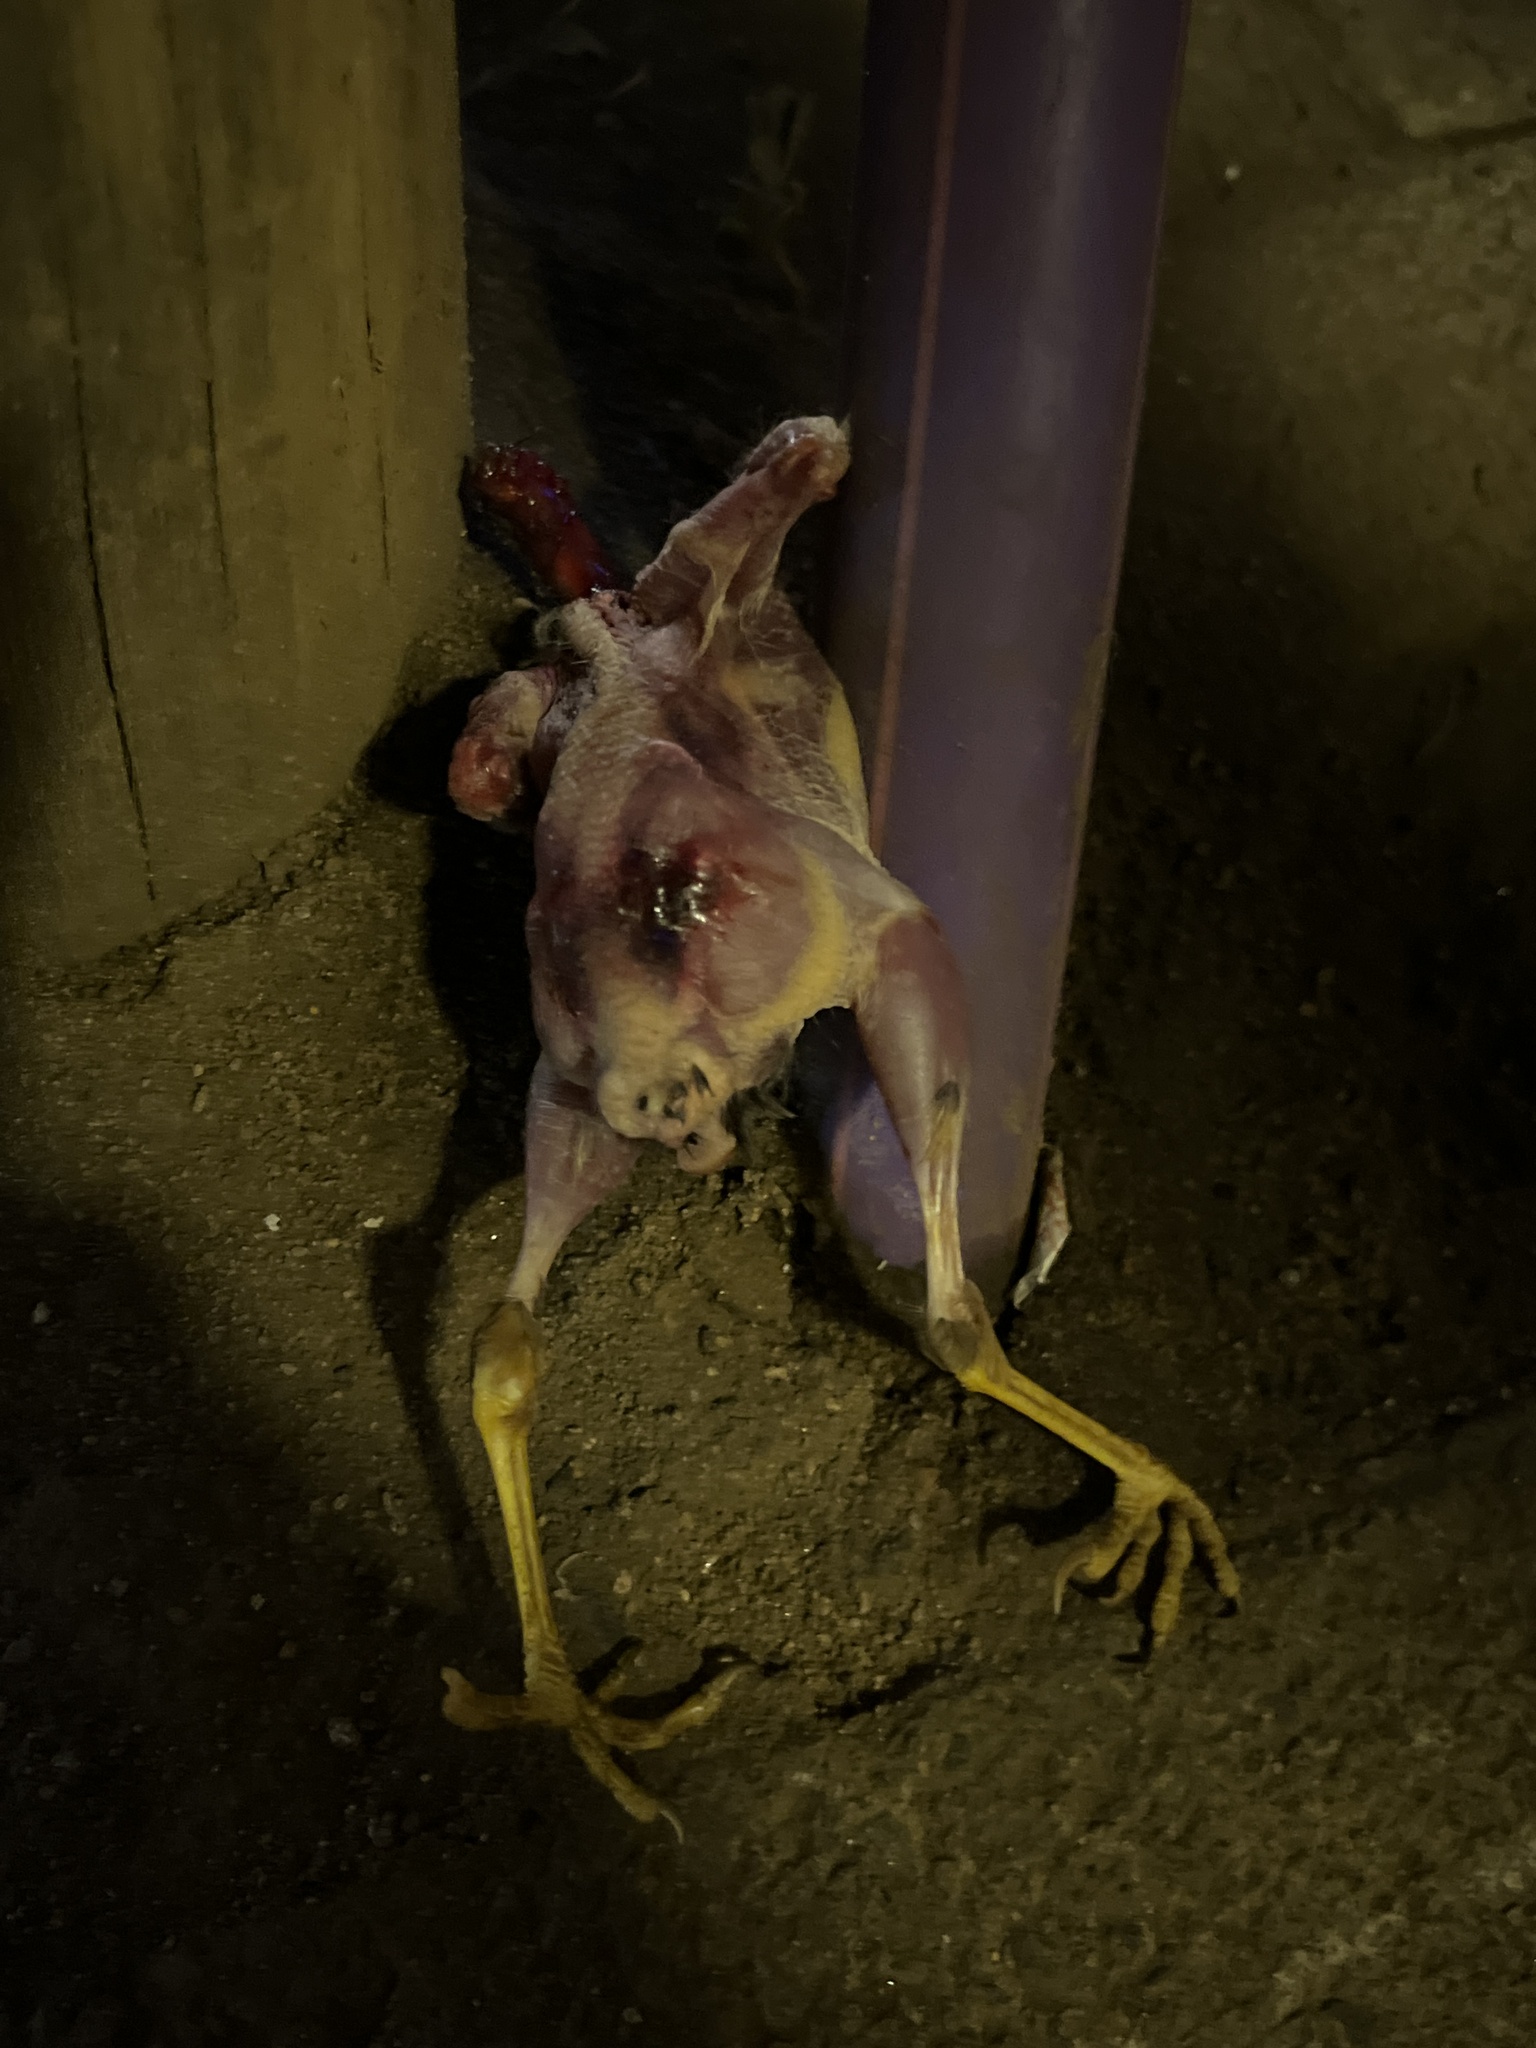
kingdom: Animalia
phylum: Chordata
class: Aves
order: Galliformes
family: Phasianidae
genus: Gallus
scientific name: Gallus gallus
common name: Red junglefowl
